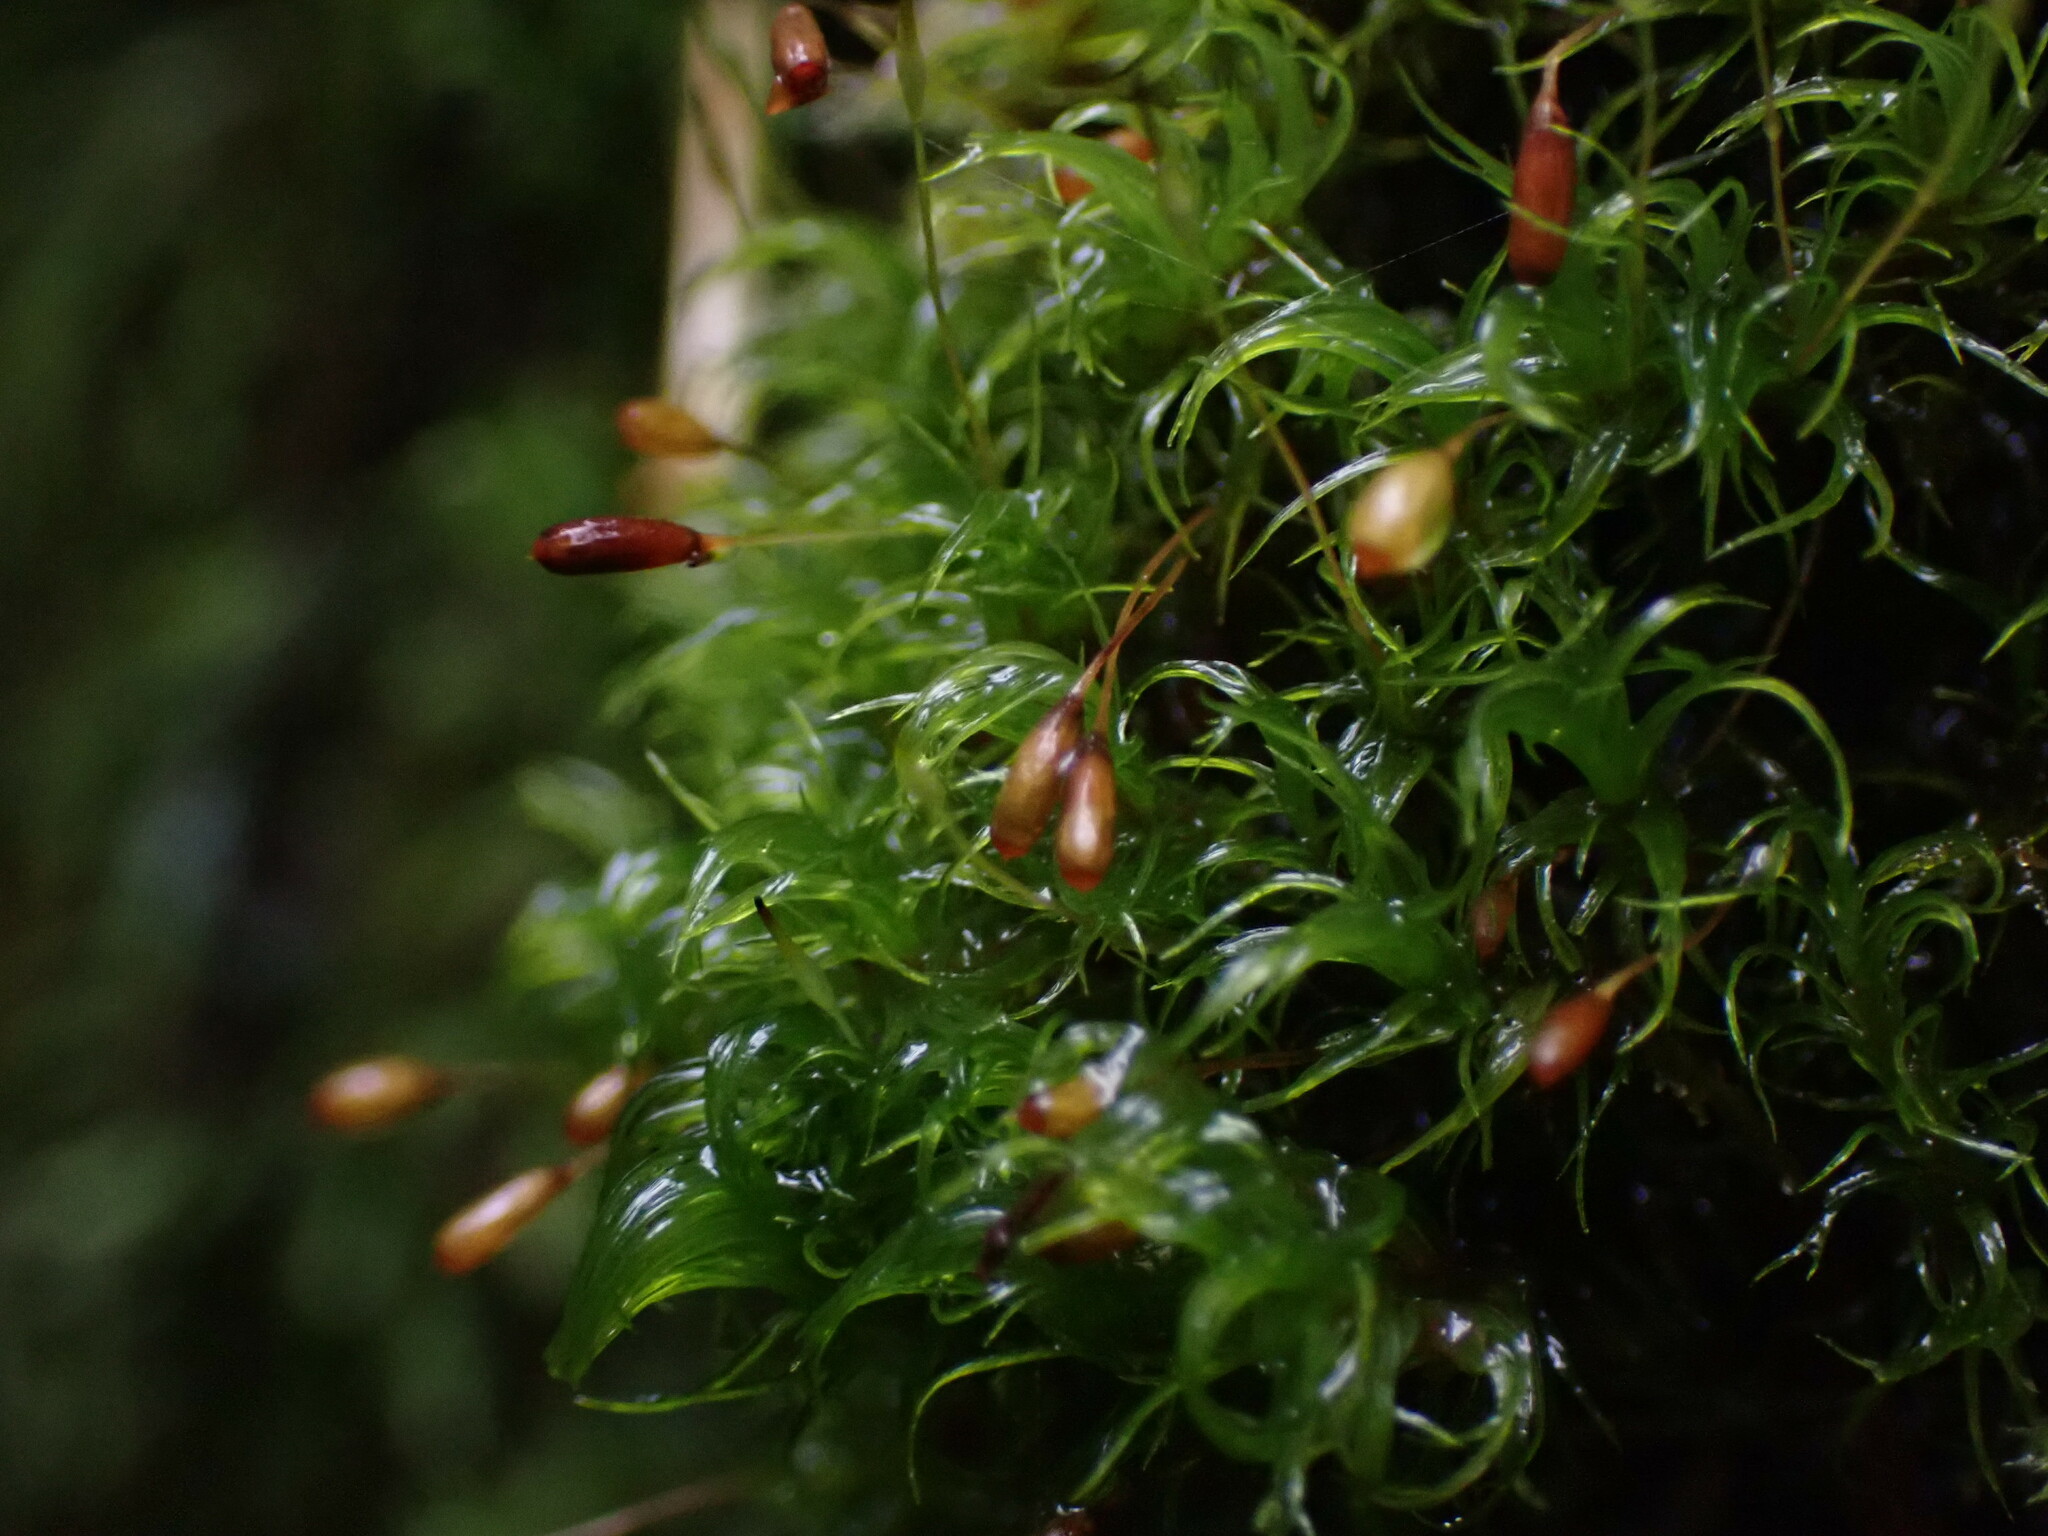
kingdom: Plantae
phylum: Bryophyta
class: Bryopsida
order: Dicranales
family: Rhabdoweisiaceae
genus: Cynodontium
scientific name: Cynodontium jenneri
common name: Jenner's dog-tooth
